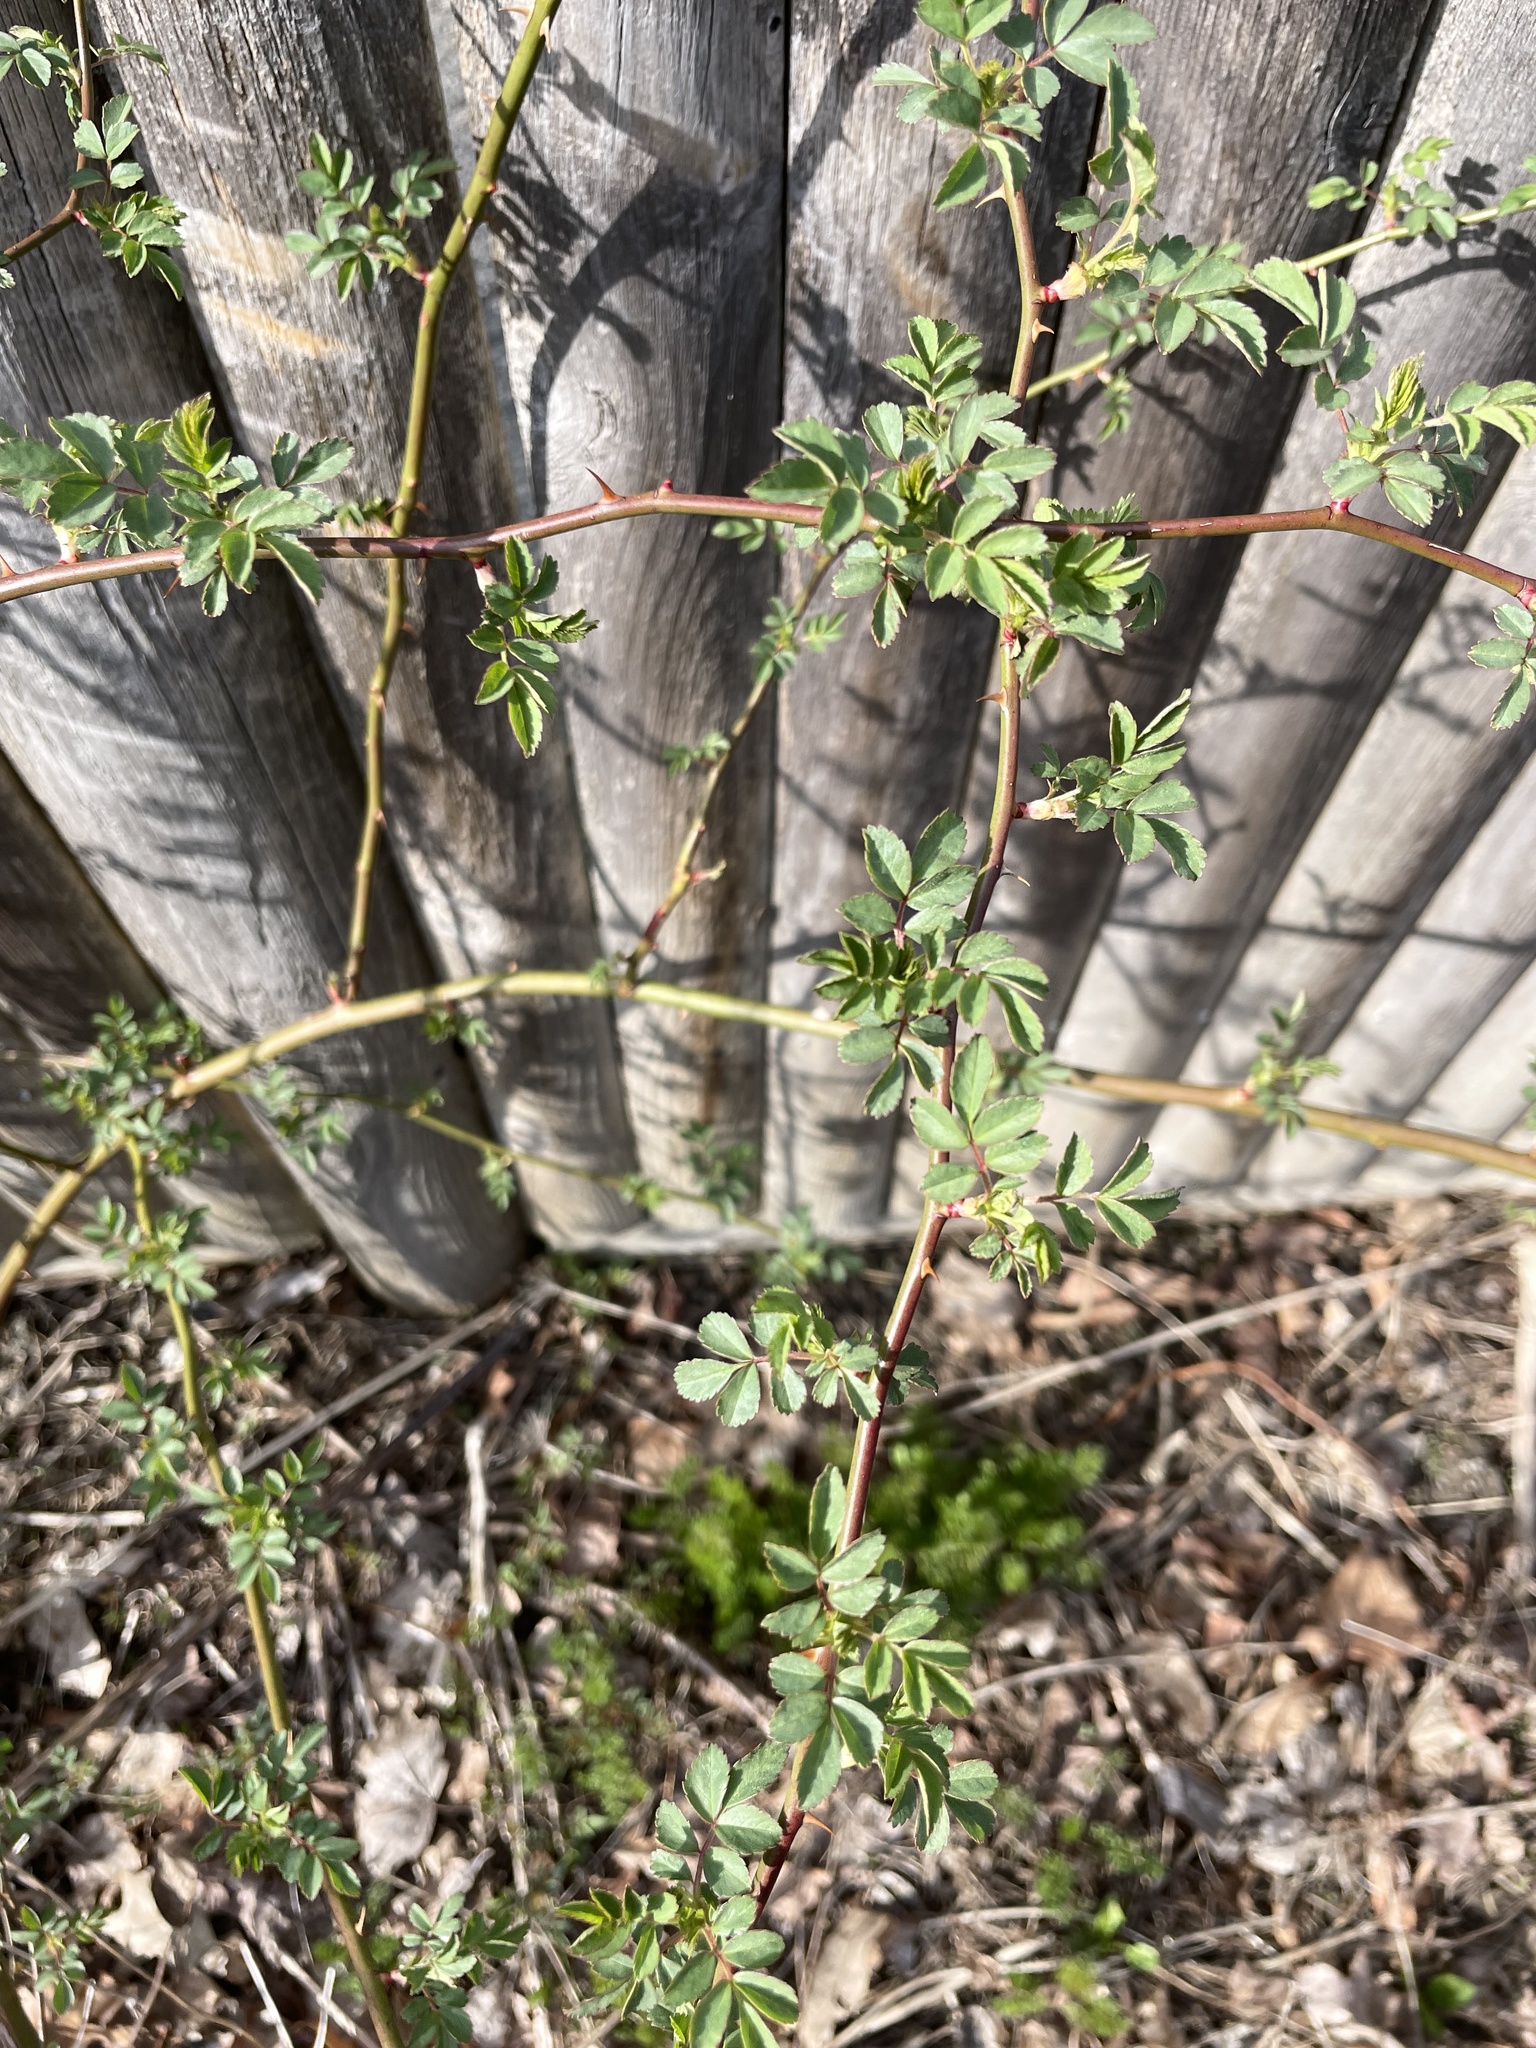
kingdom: Plantae
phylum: Tracheophyta
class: Magnoliopsida
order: Rosales
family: Rosaceae
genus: Rosa
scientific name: Rosa multiflora
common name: Multiflora rose
